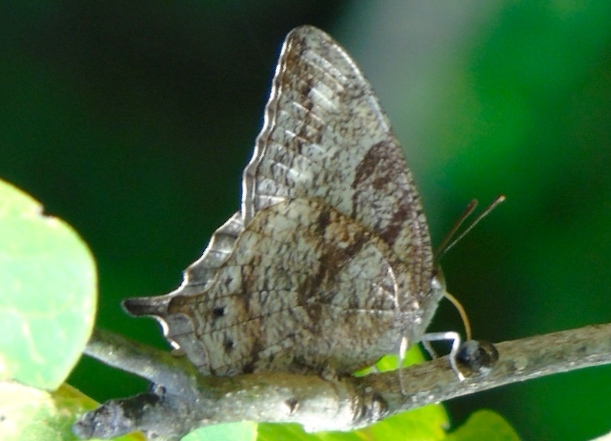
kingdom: Animalia
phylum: Arthropoda
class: Insecta
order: Lepidoptera
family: Nymphalidae
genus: Anaea
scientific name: Anaea
